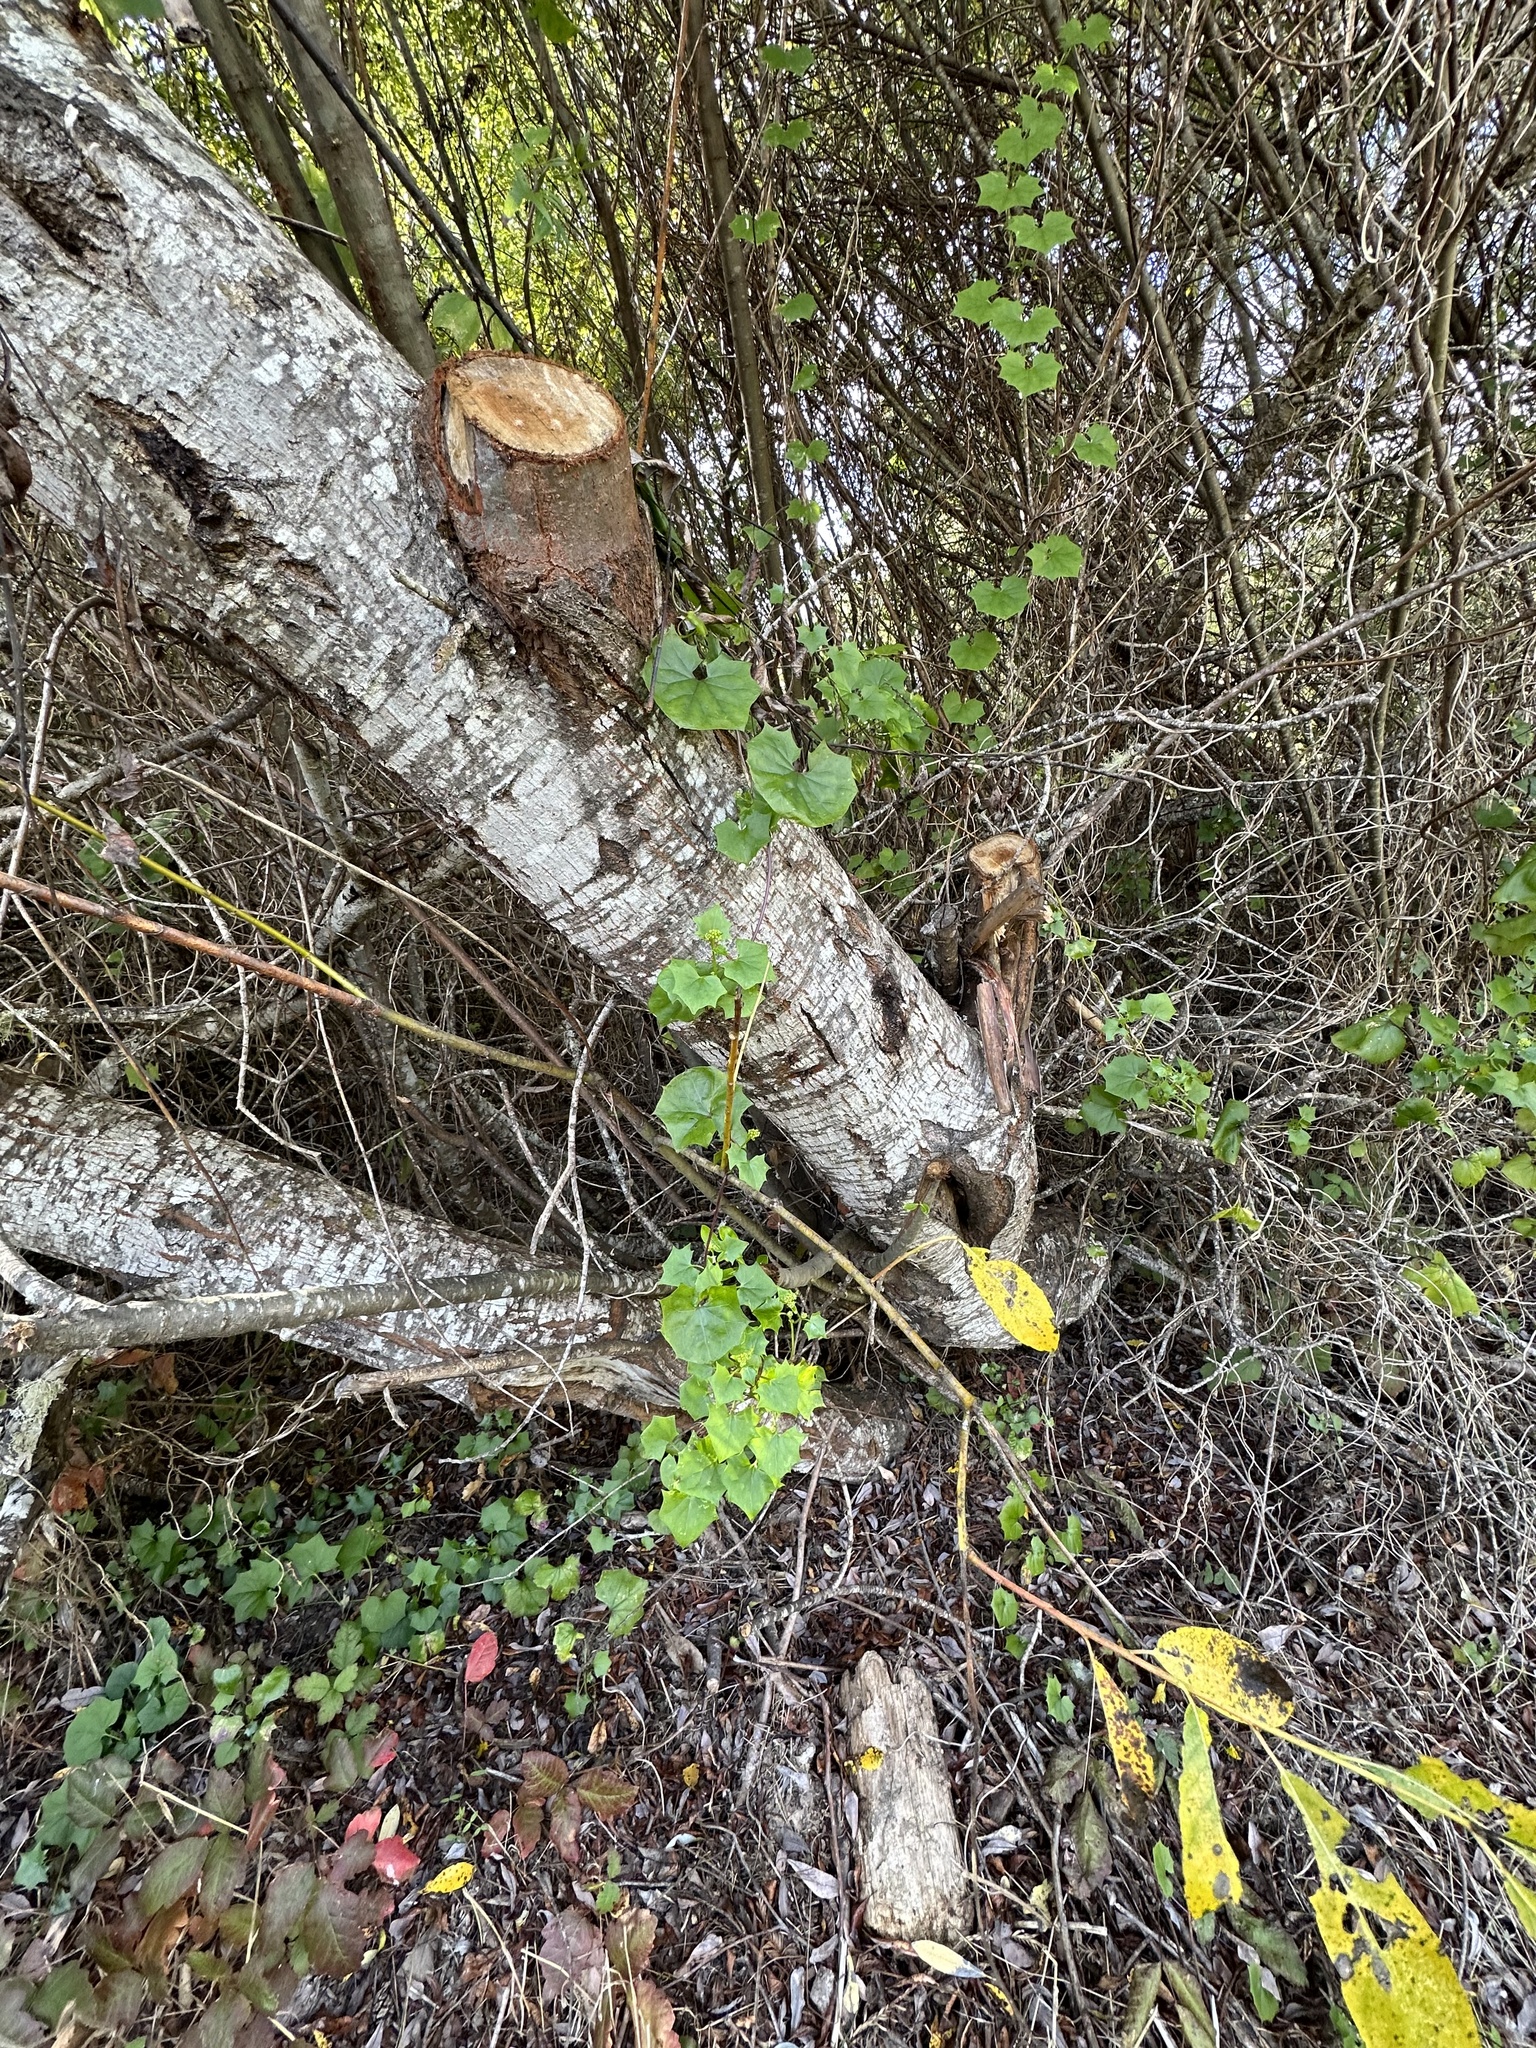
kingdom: Plantae
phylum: Tracheophyta
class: Magnoliopsida
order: Asterales
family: Asteraceae
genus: Delairea
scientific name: Delairea odorata
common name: Cape-ivy
